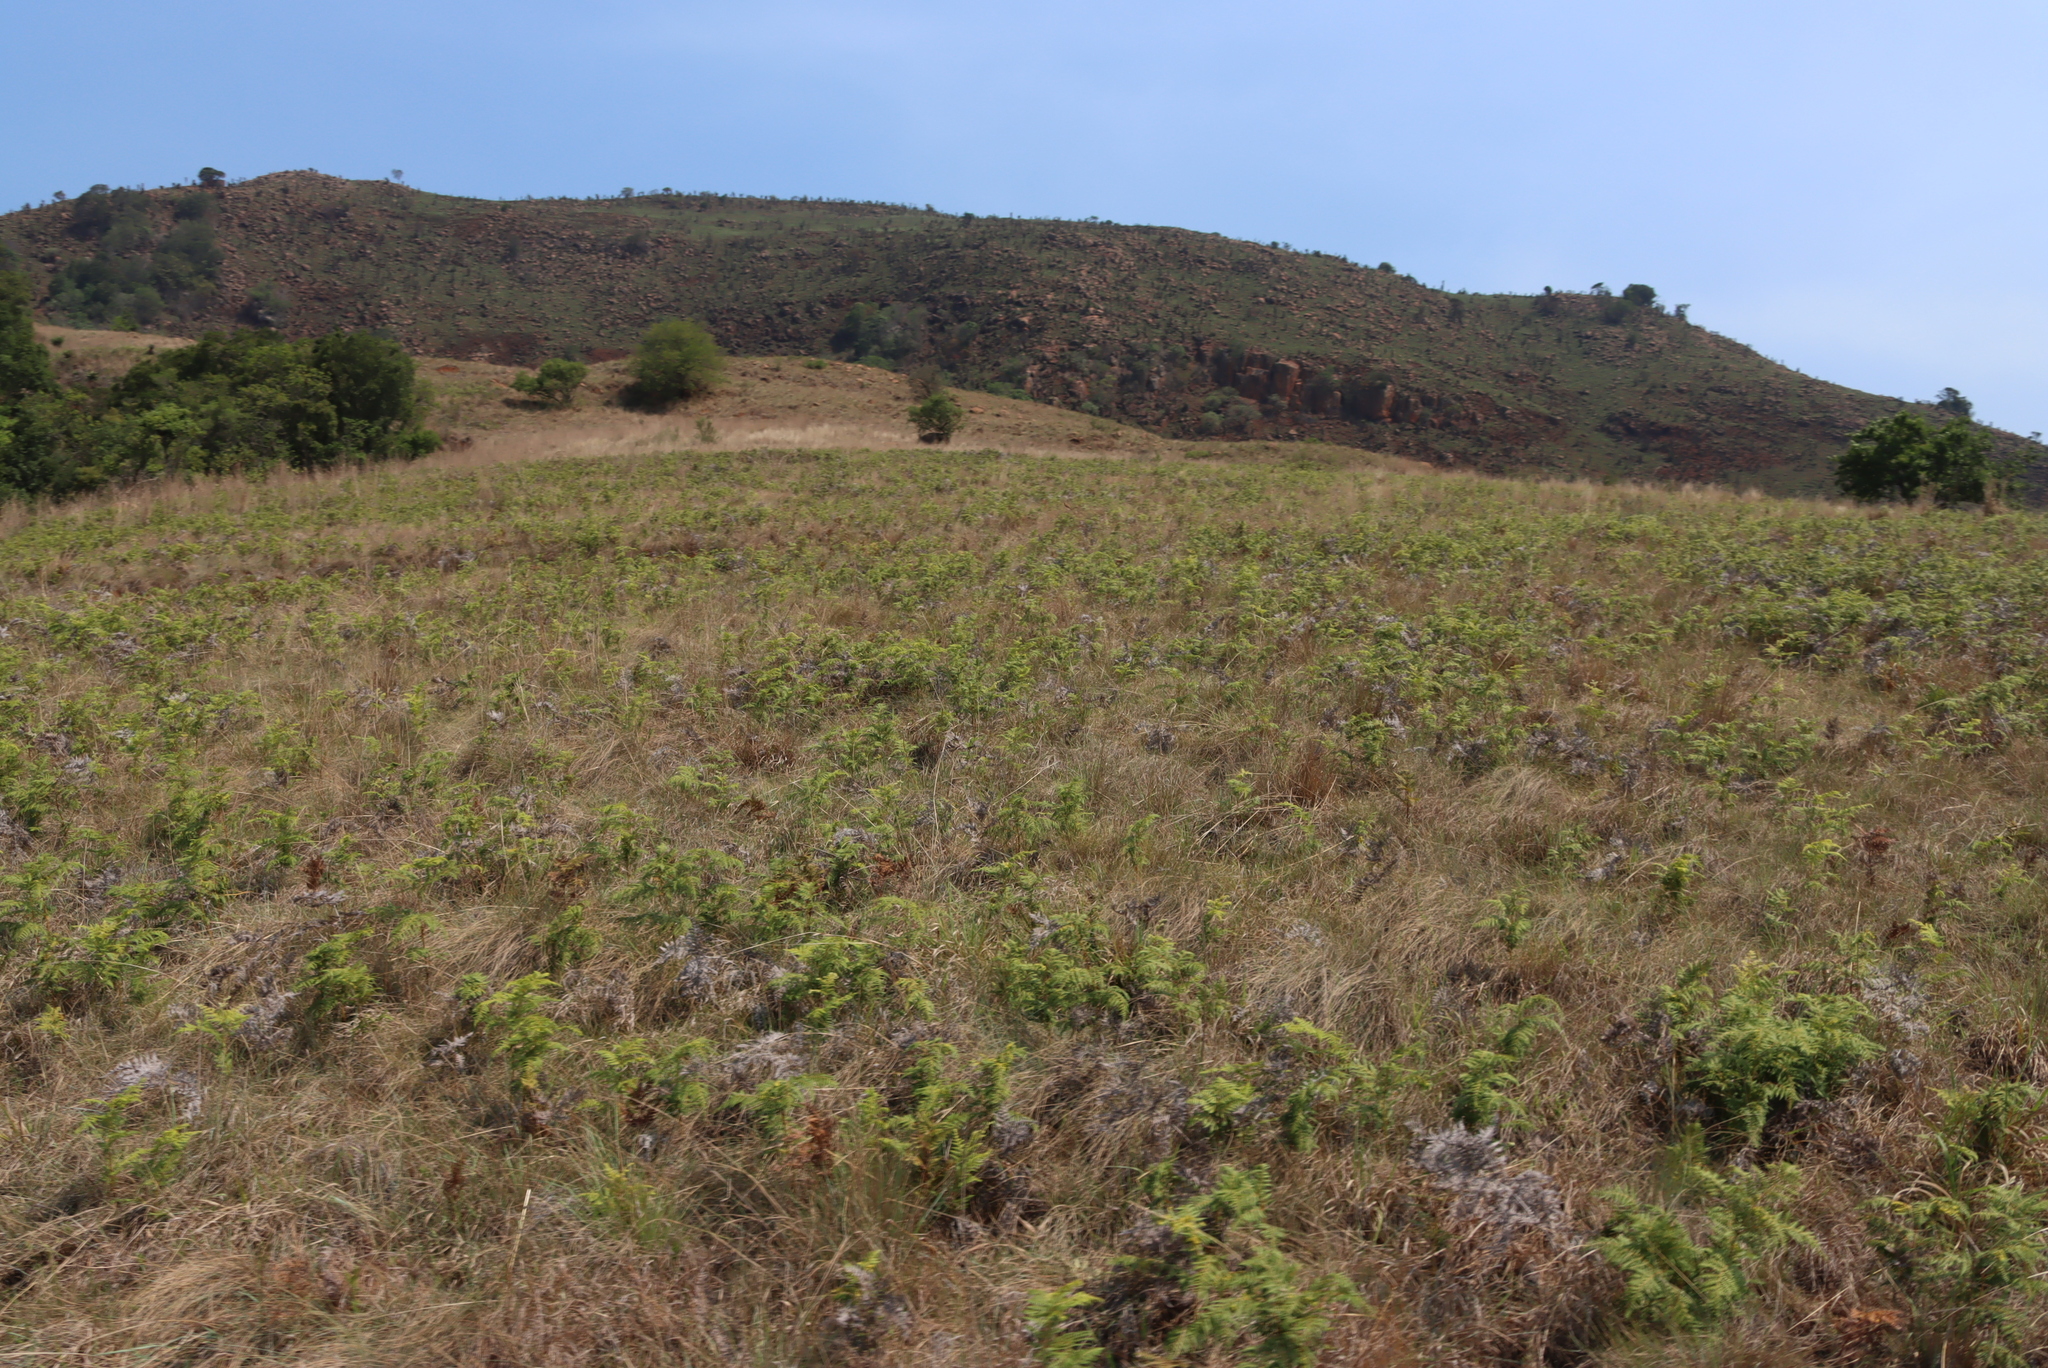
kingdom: Plantae
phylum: Tracheophyta
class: Polypodiopsida
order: Polypodiales
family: Dennstaedtiaceae
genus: Pteridium
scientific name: Pteridium aquilinum
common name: Bracken
